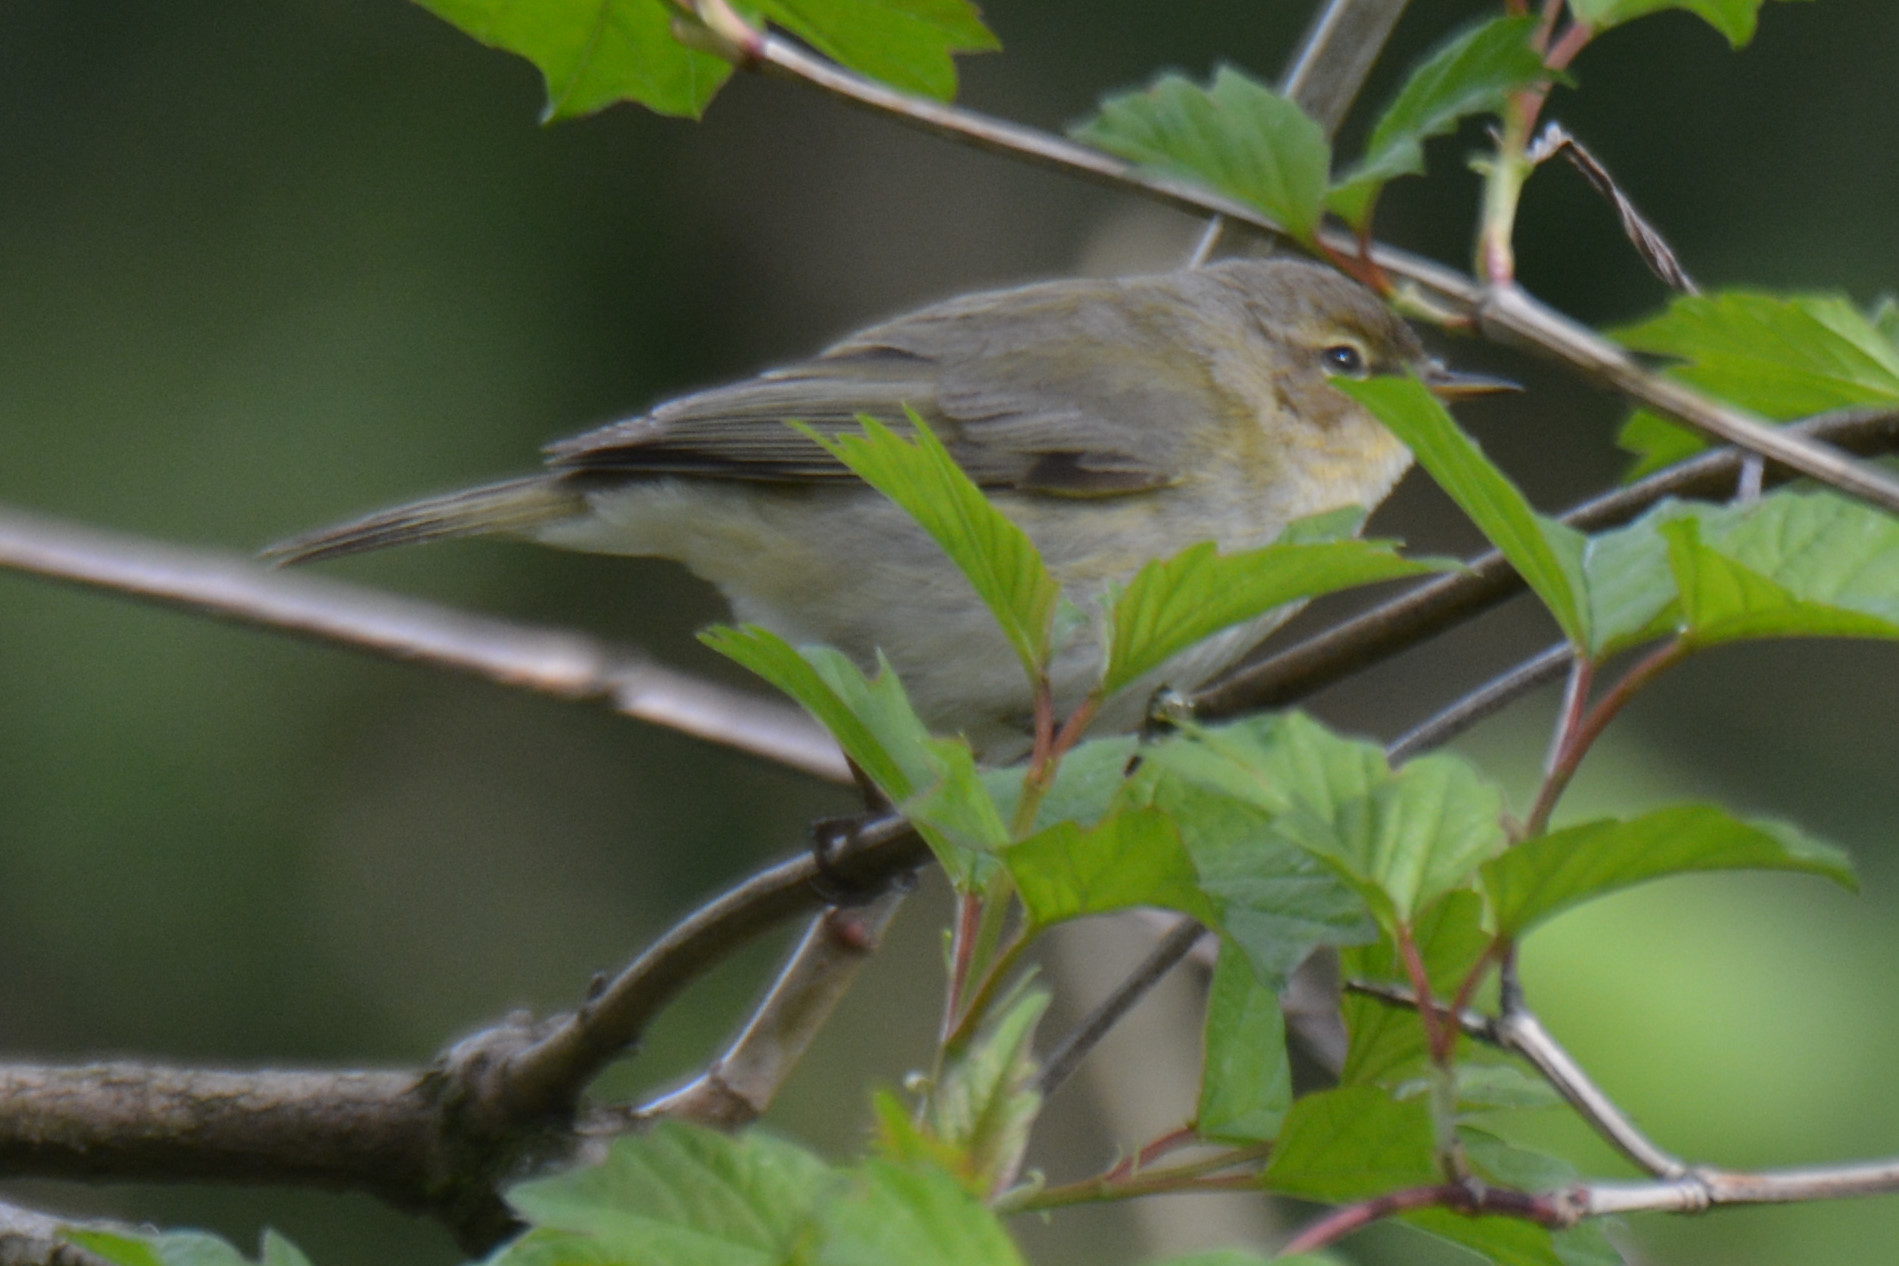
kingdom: Animalia
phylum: Chordata
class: Aves
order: Passeriformes
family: Phylloscopidae
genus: Phylloscopus
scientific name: Phylloscopus collybita
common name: Common chiffchaff
